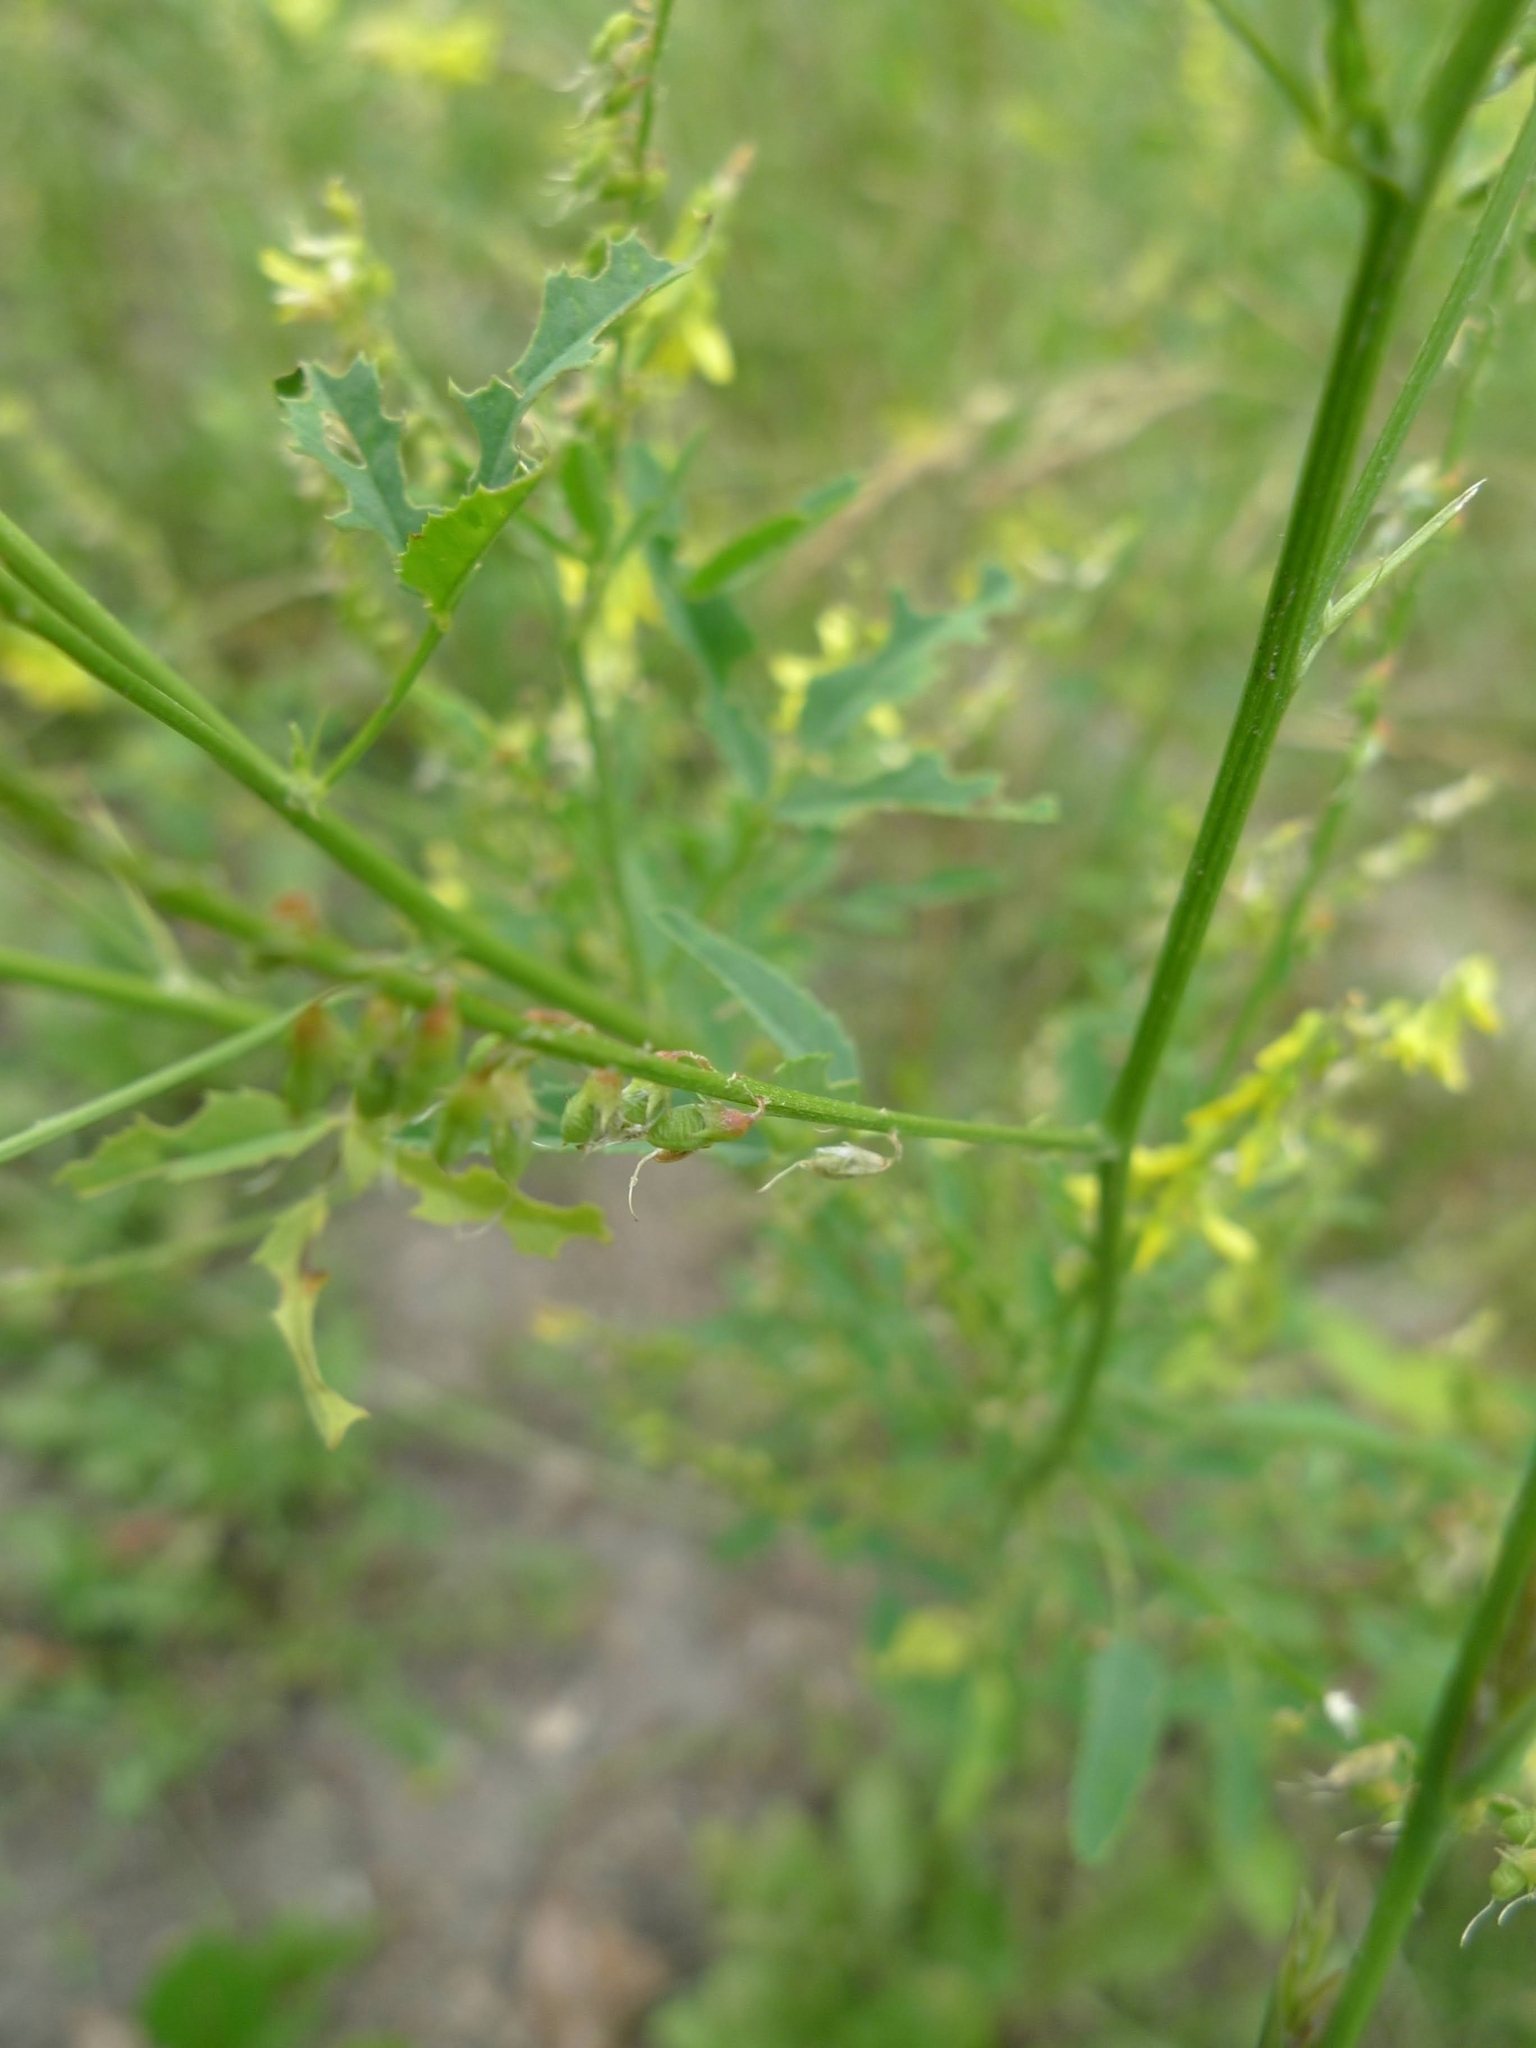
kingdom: Plantae
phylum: Tracheophyta
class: Magnoliopsida
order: Fabales
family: Fabaceae
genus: Melilotus
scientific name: Melilotus officinalis
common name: Sweetclover
